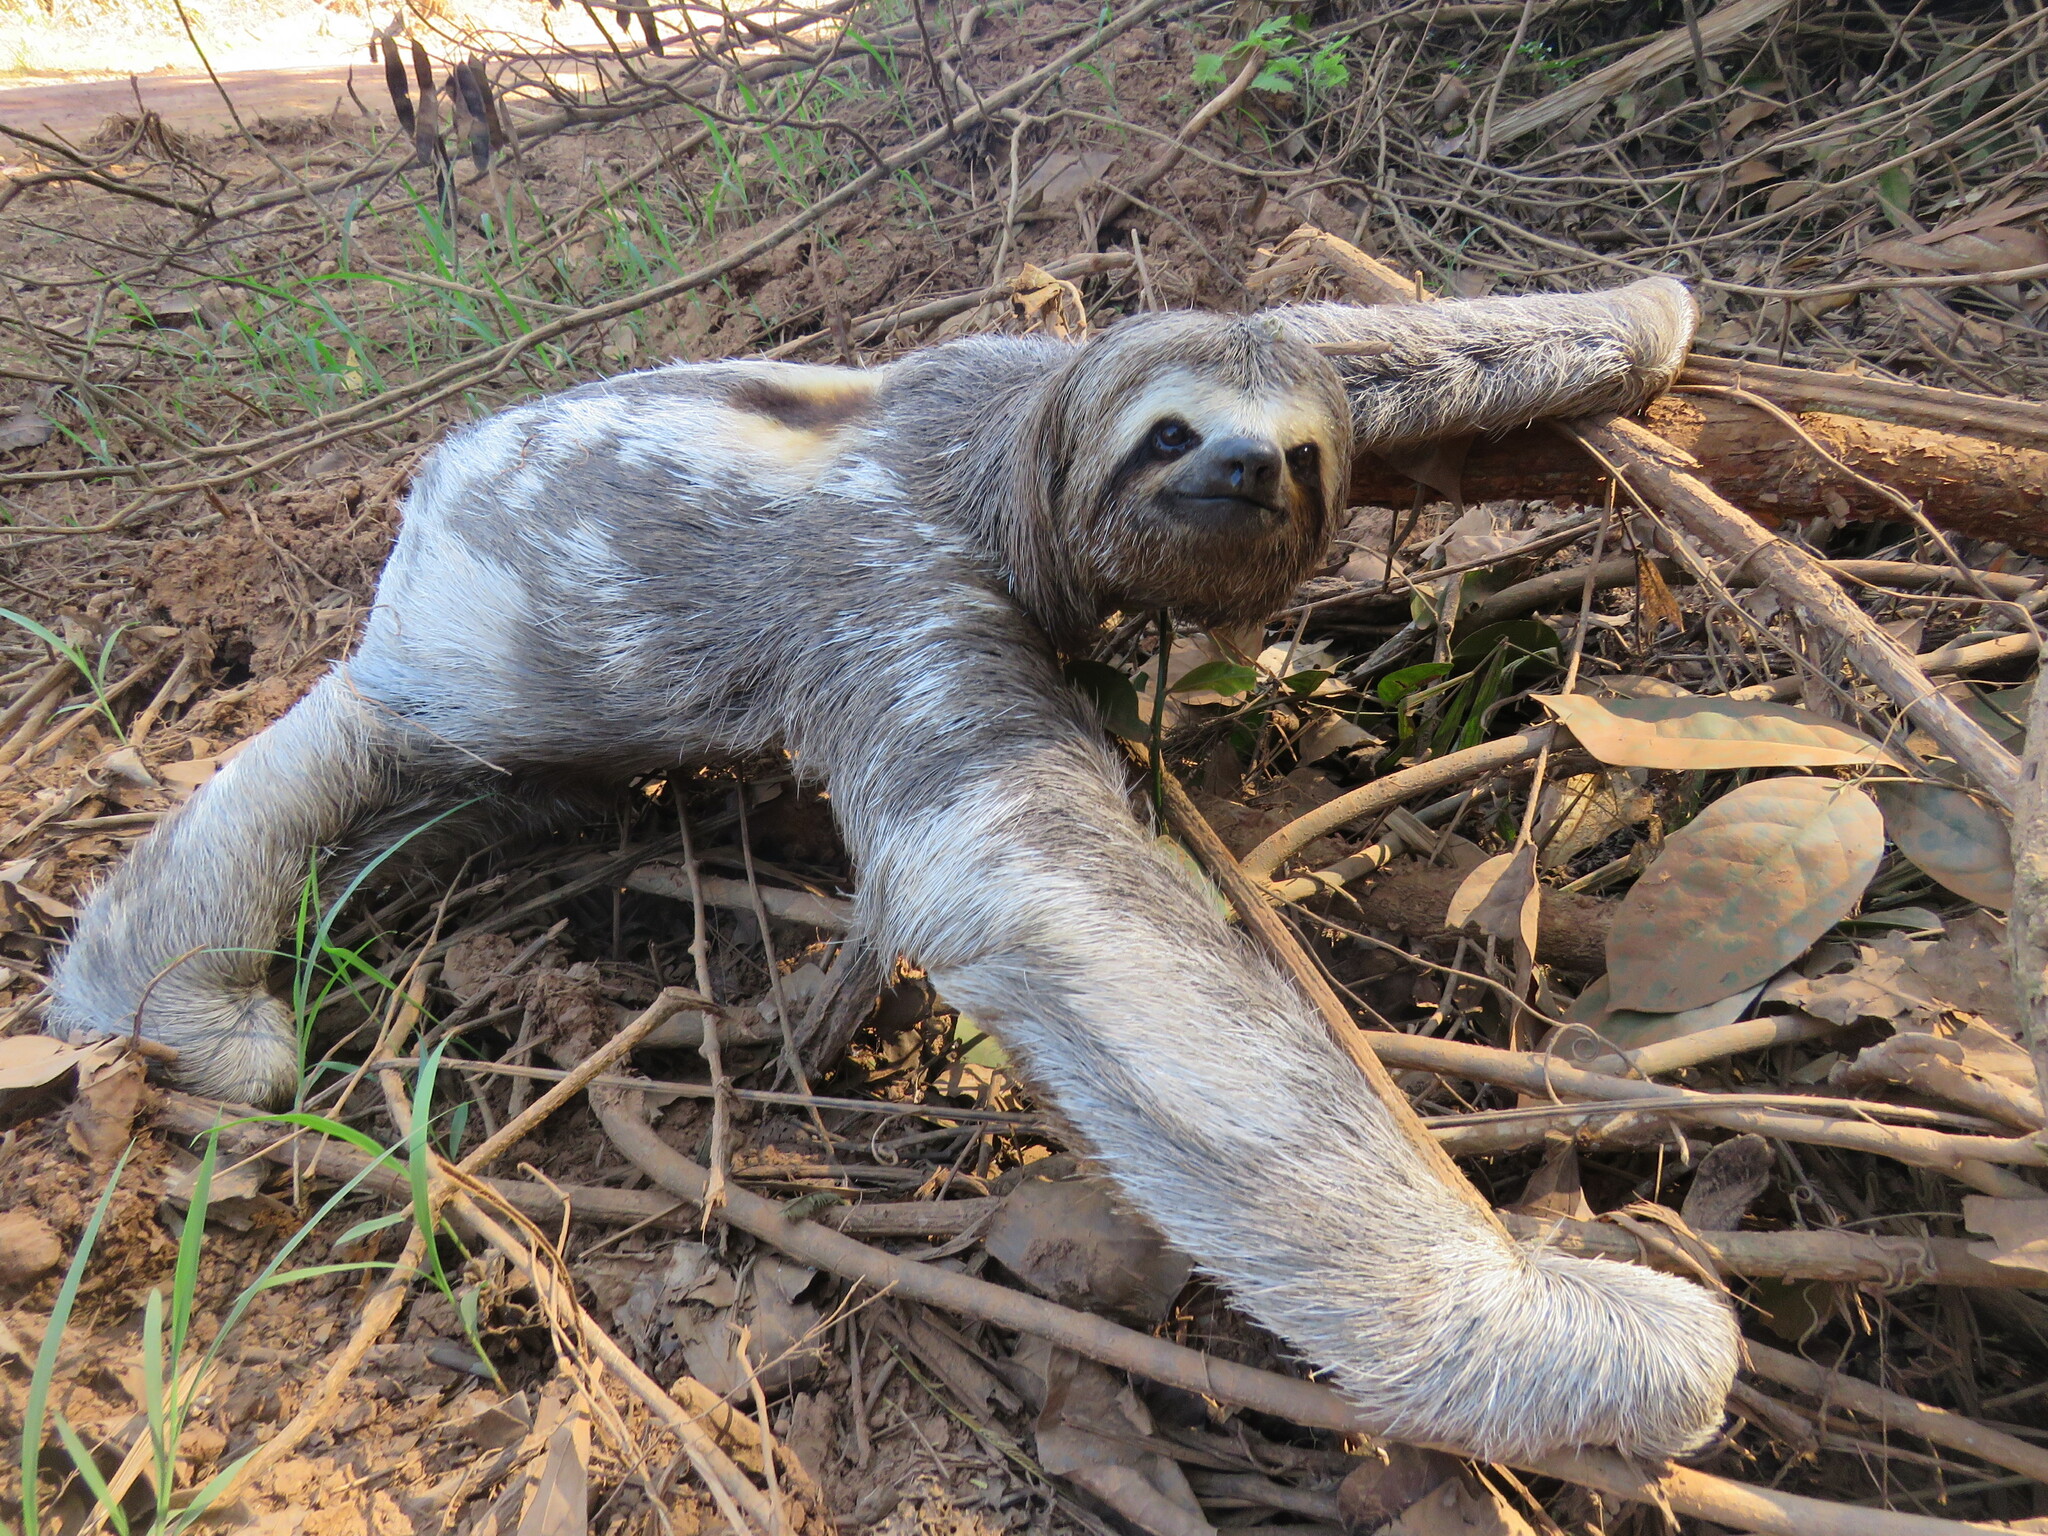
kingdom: Animalia
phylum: Chordata
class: Mammalia
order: Pilosa
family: Bradypodidae
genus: Bradypus
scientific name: Bradypus variegatus
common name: Brown-throated three-toed sloth
